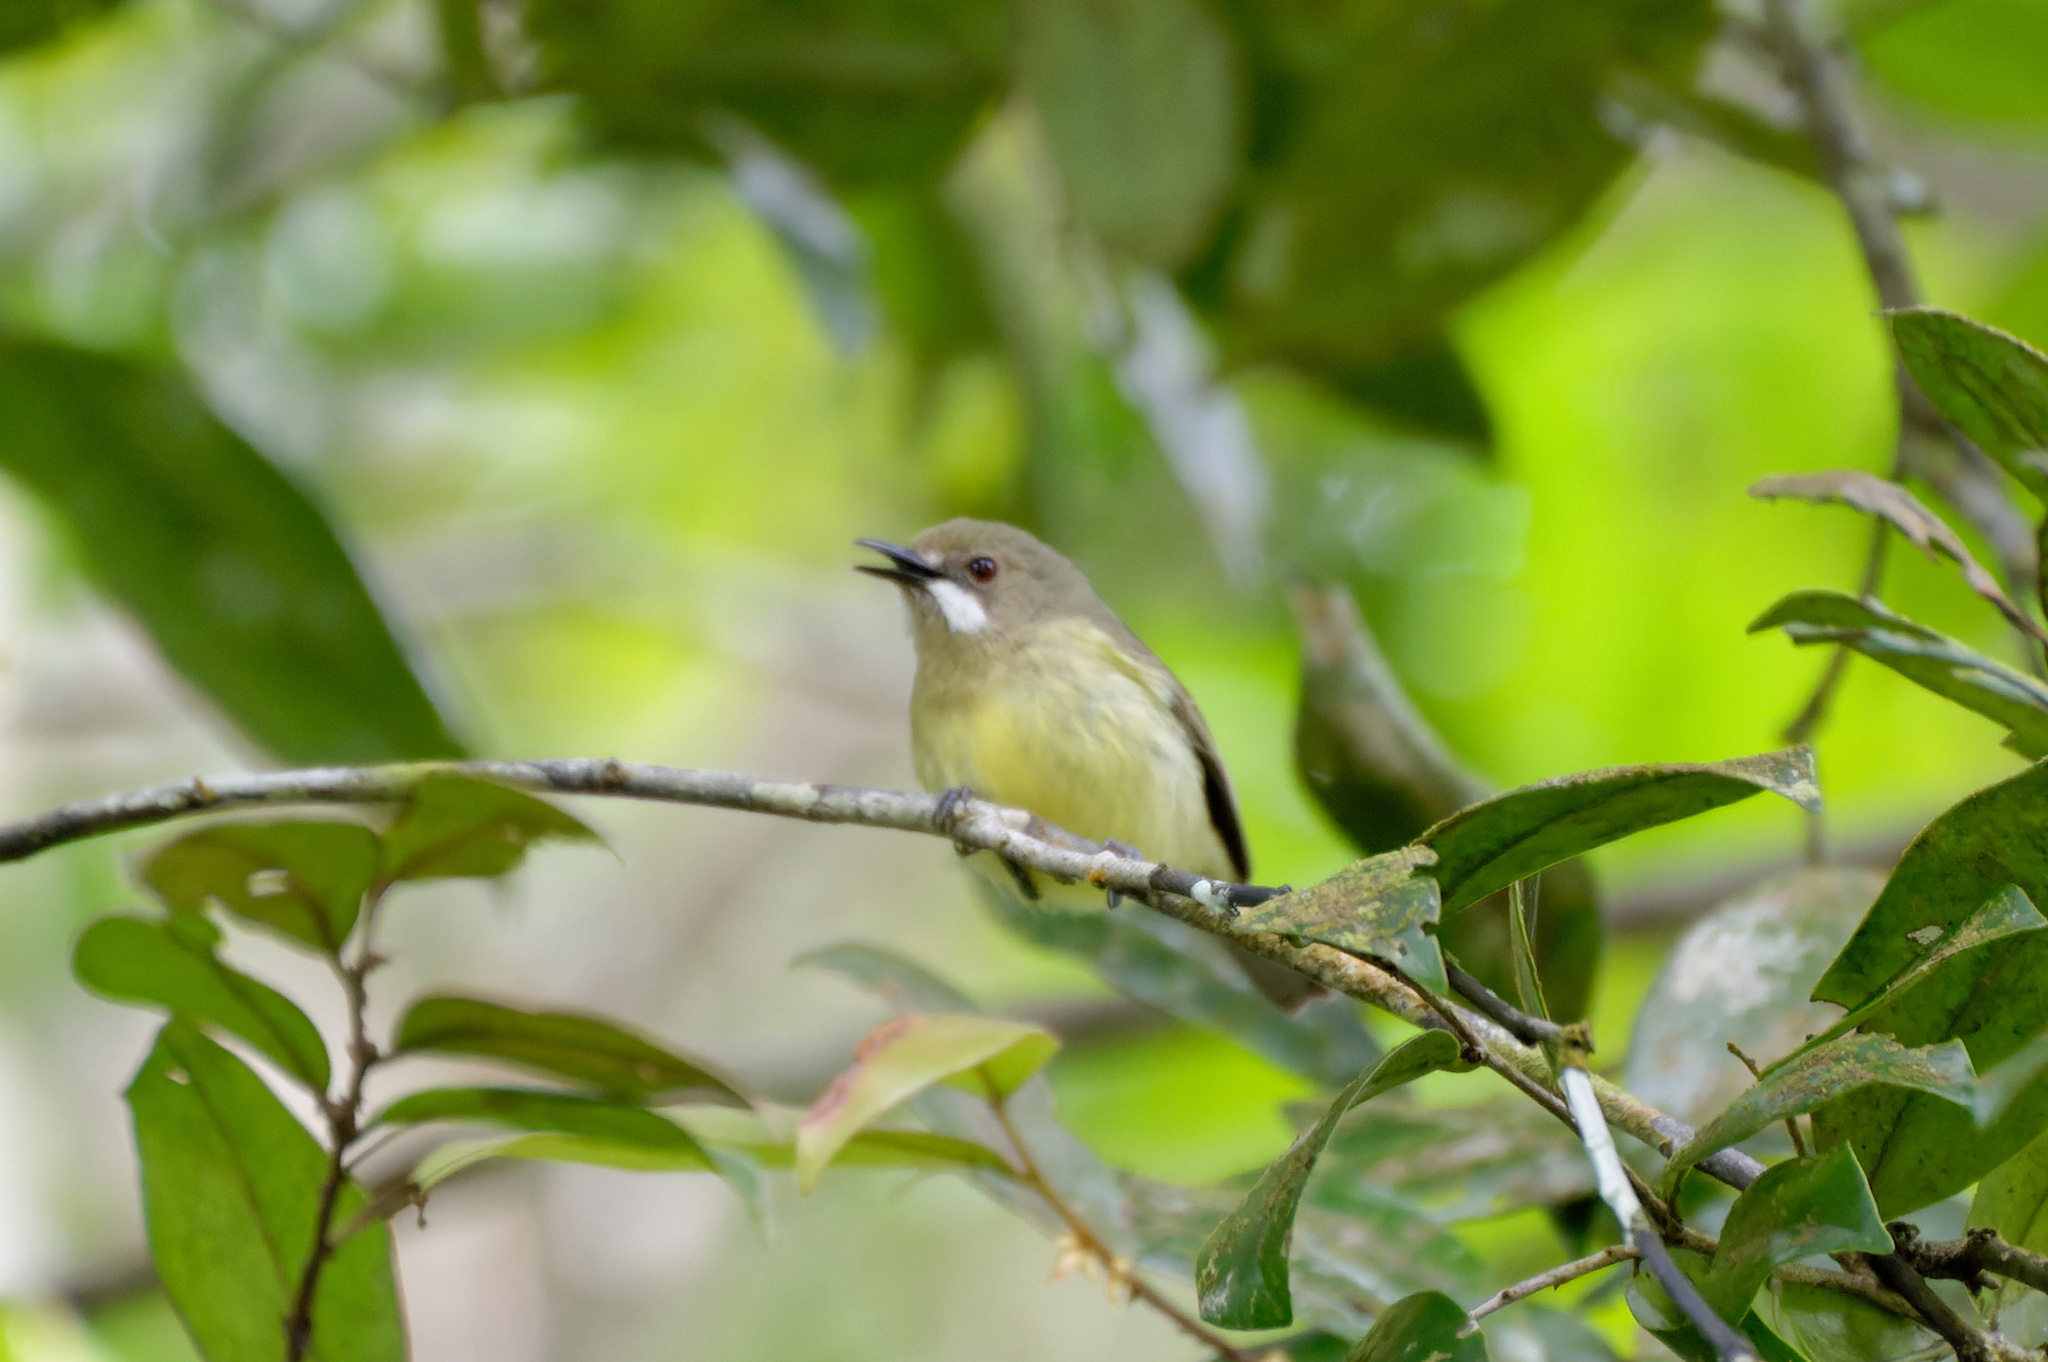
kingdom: Animalia
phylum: Chordata
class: Aves
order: Passeriformes
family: Acanthizidae
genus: Gerygone
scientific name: Gerygone palpebrosa
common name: Fairy gerygone
